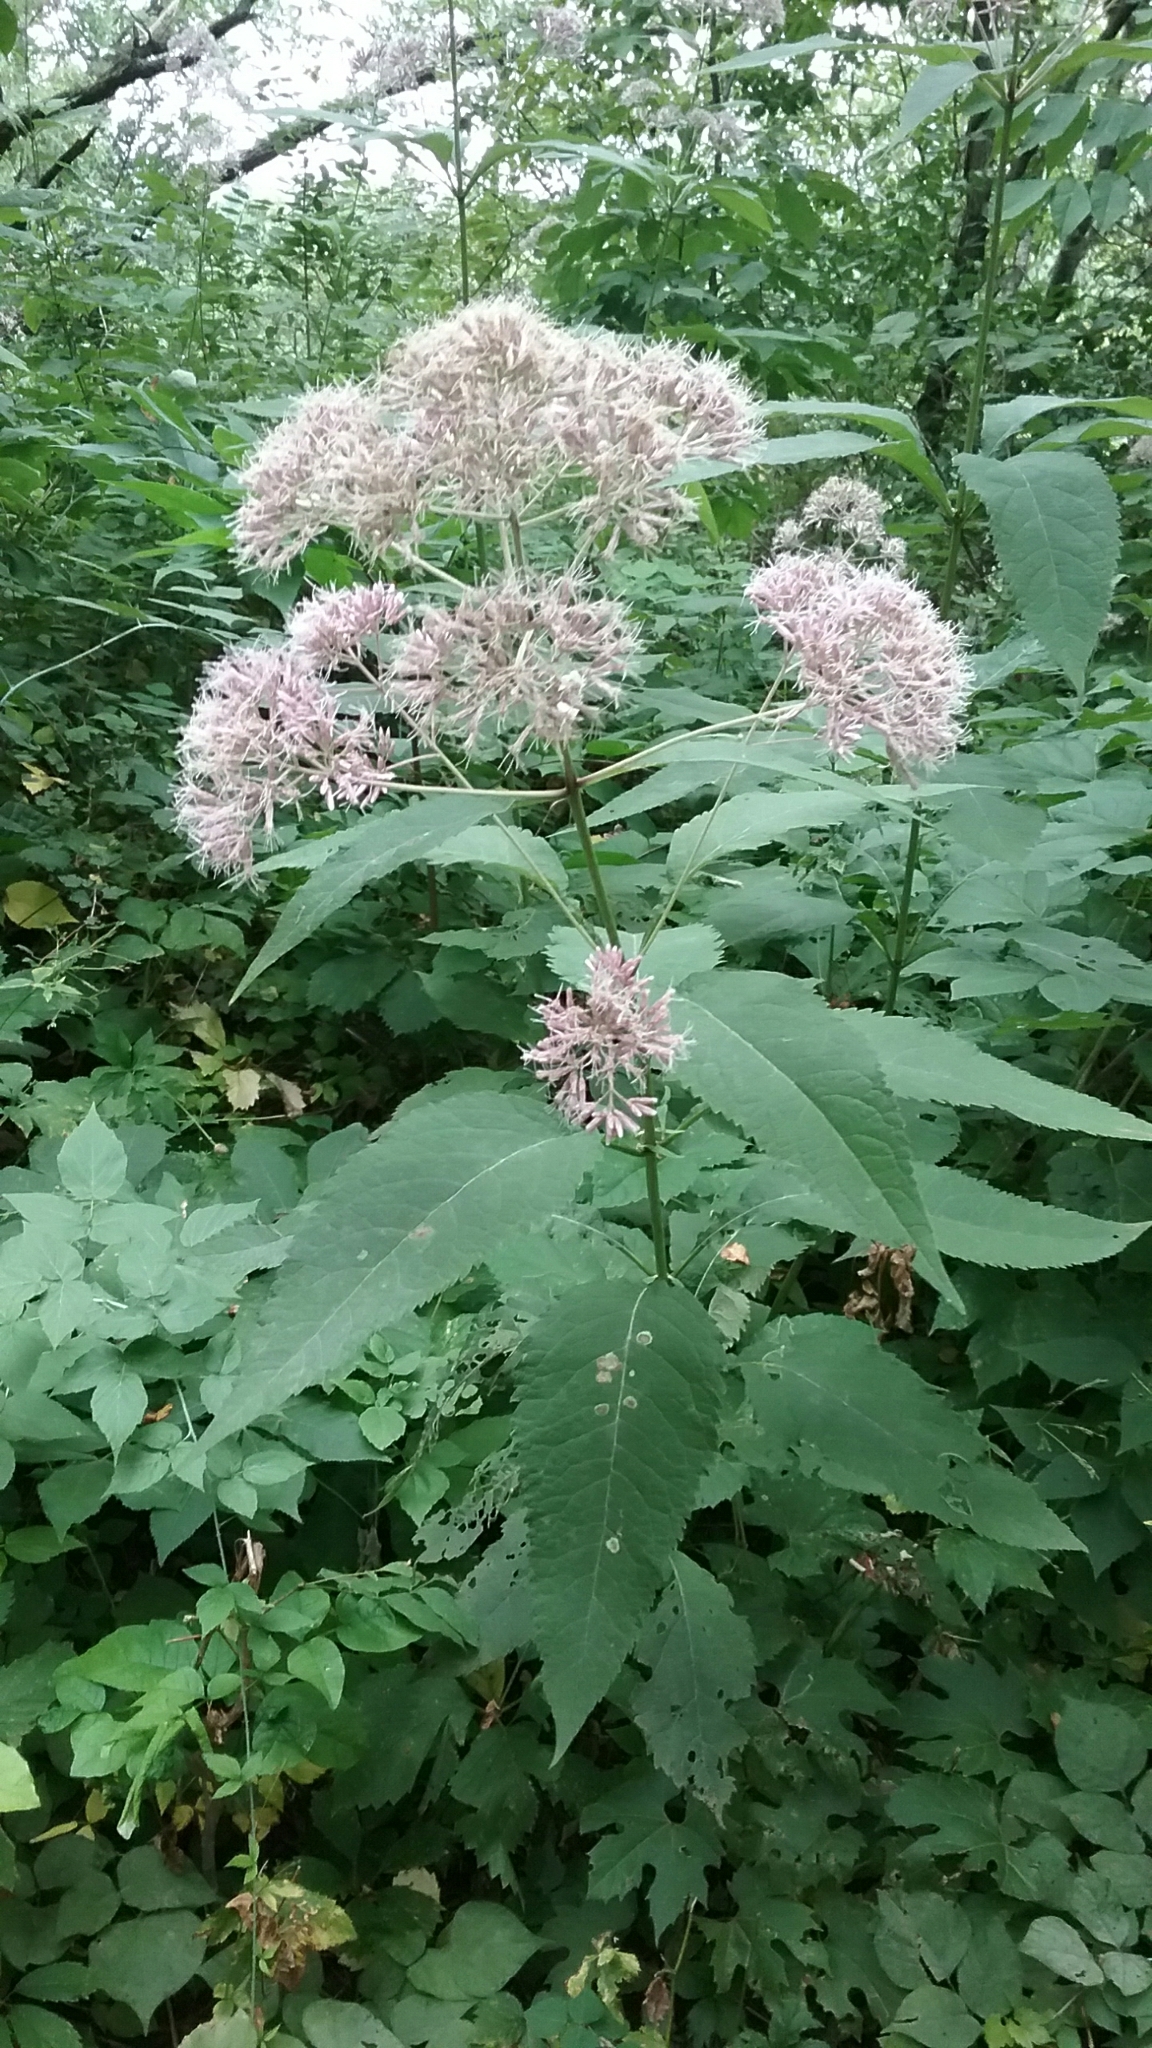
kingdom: Plantae
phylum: Tracheophyta
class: Magnoliopsida
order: Asterales
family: Asteraceae
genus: Eutrochium
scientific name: Eutrochium purpureum
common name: Gravelroot
